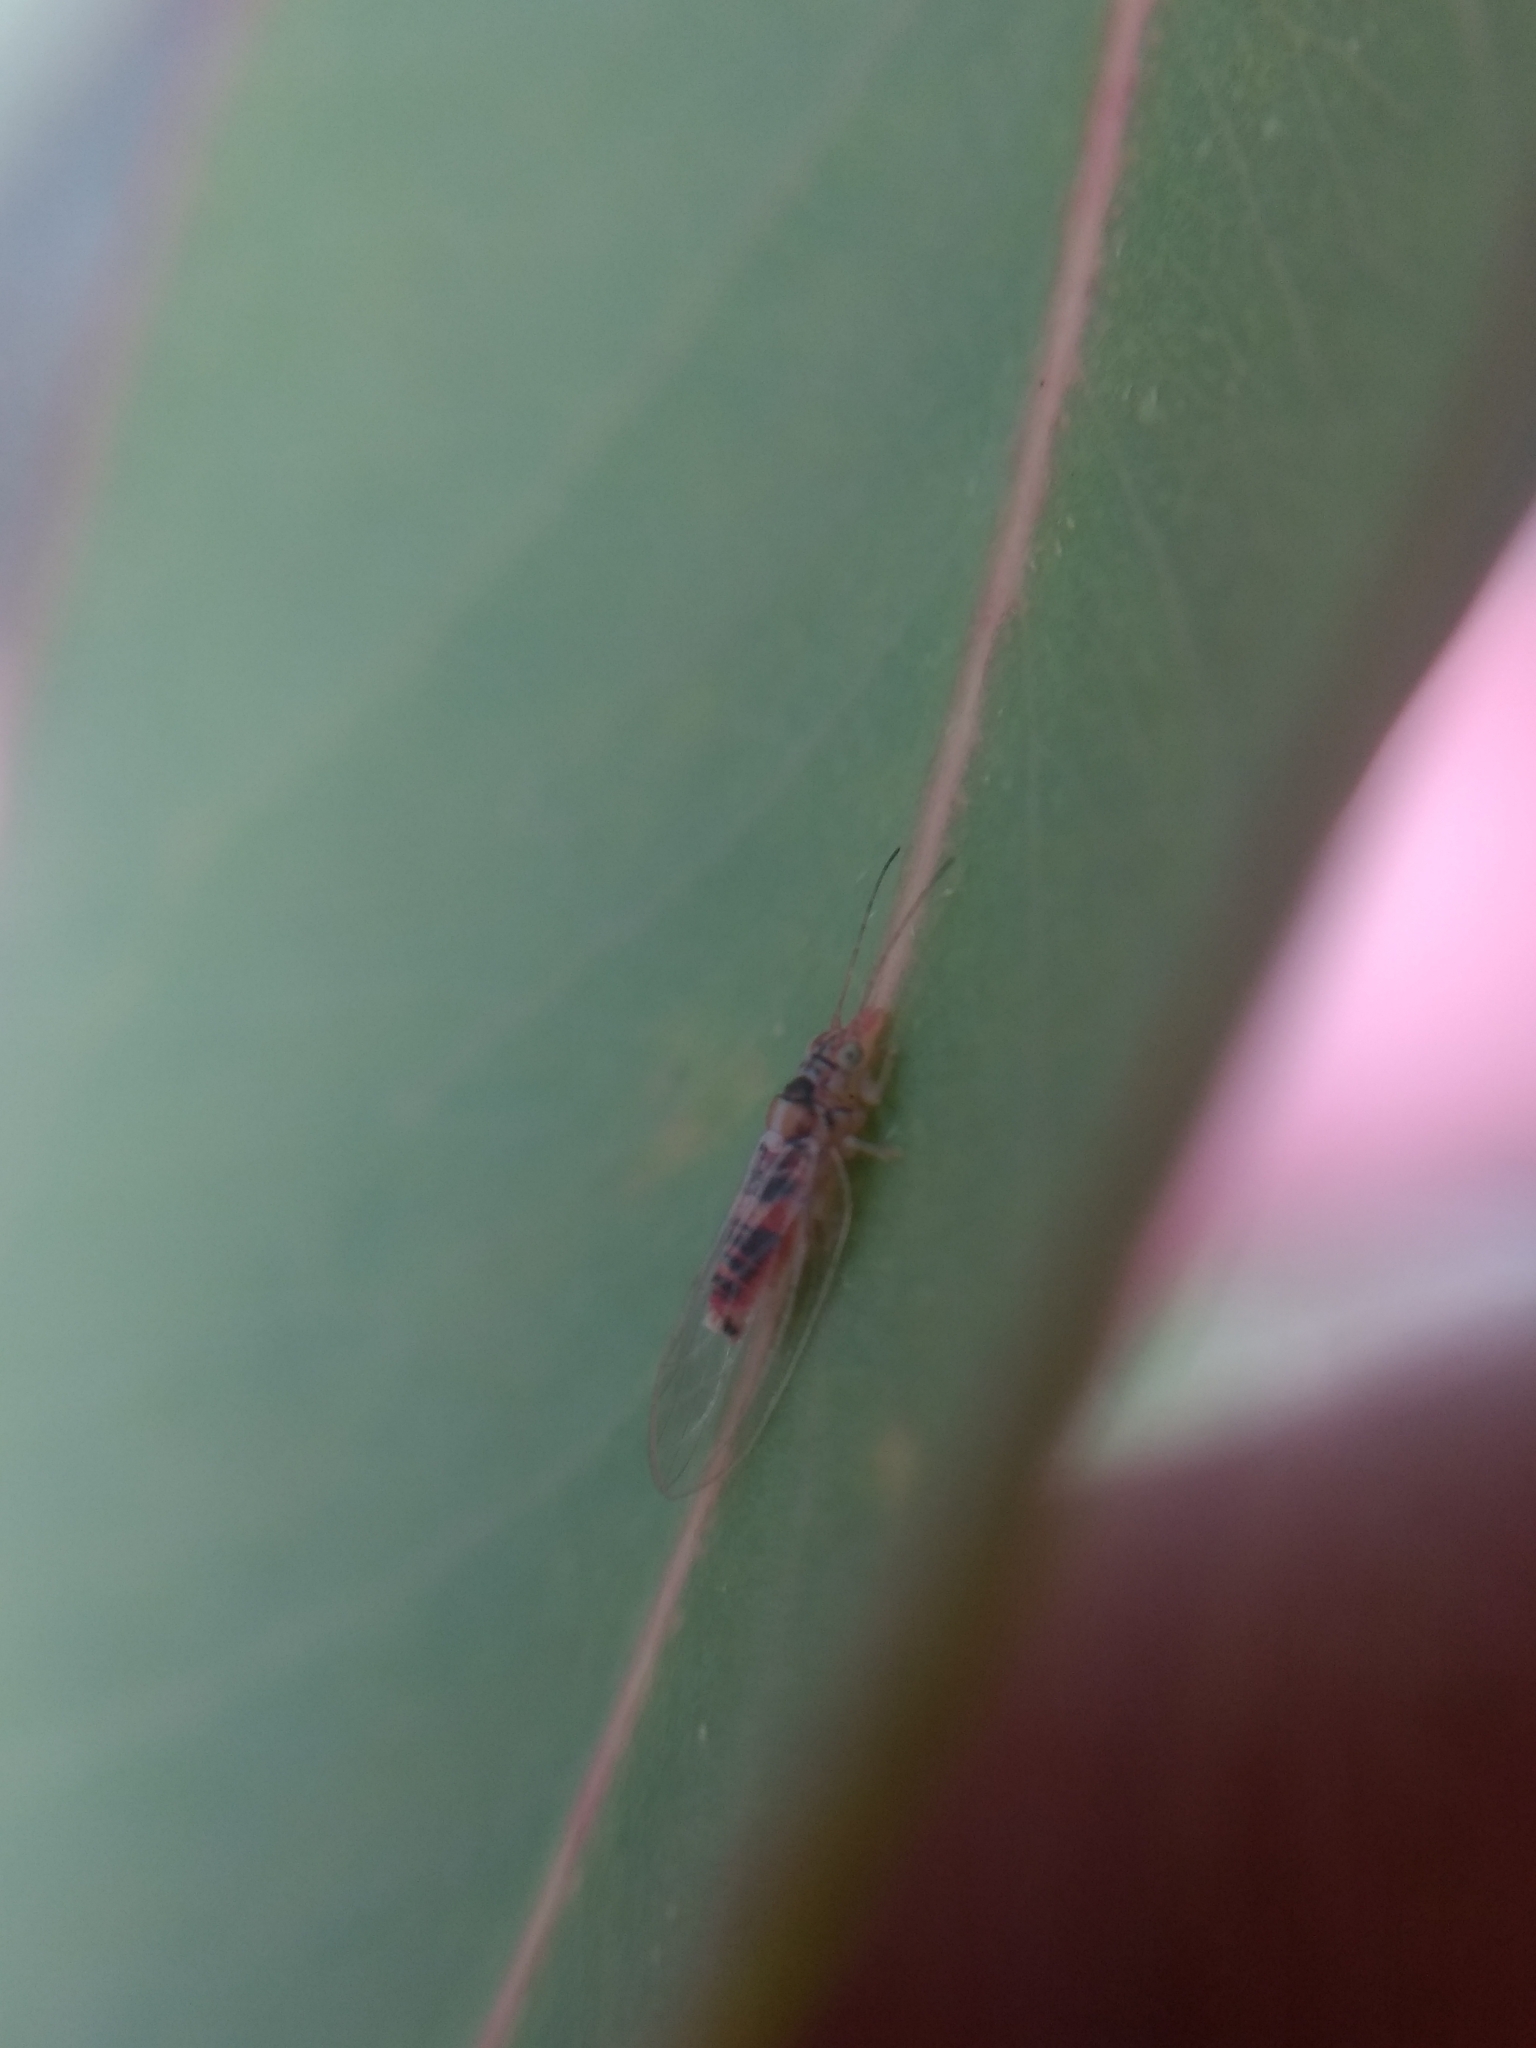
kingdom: Animalia
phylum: Arthropoda
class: Insecta
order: Hemiptera
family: Aphalaridae
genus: Glycaspis
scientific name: Glycaspis brimblecombei
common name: Red gum lerp psyllid
